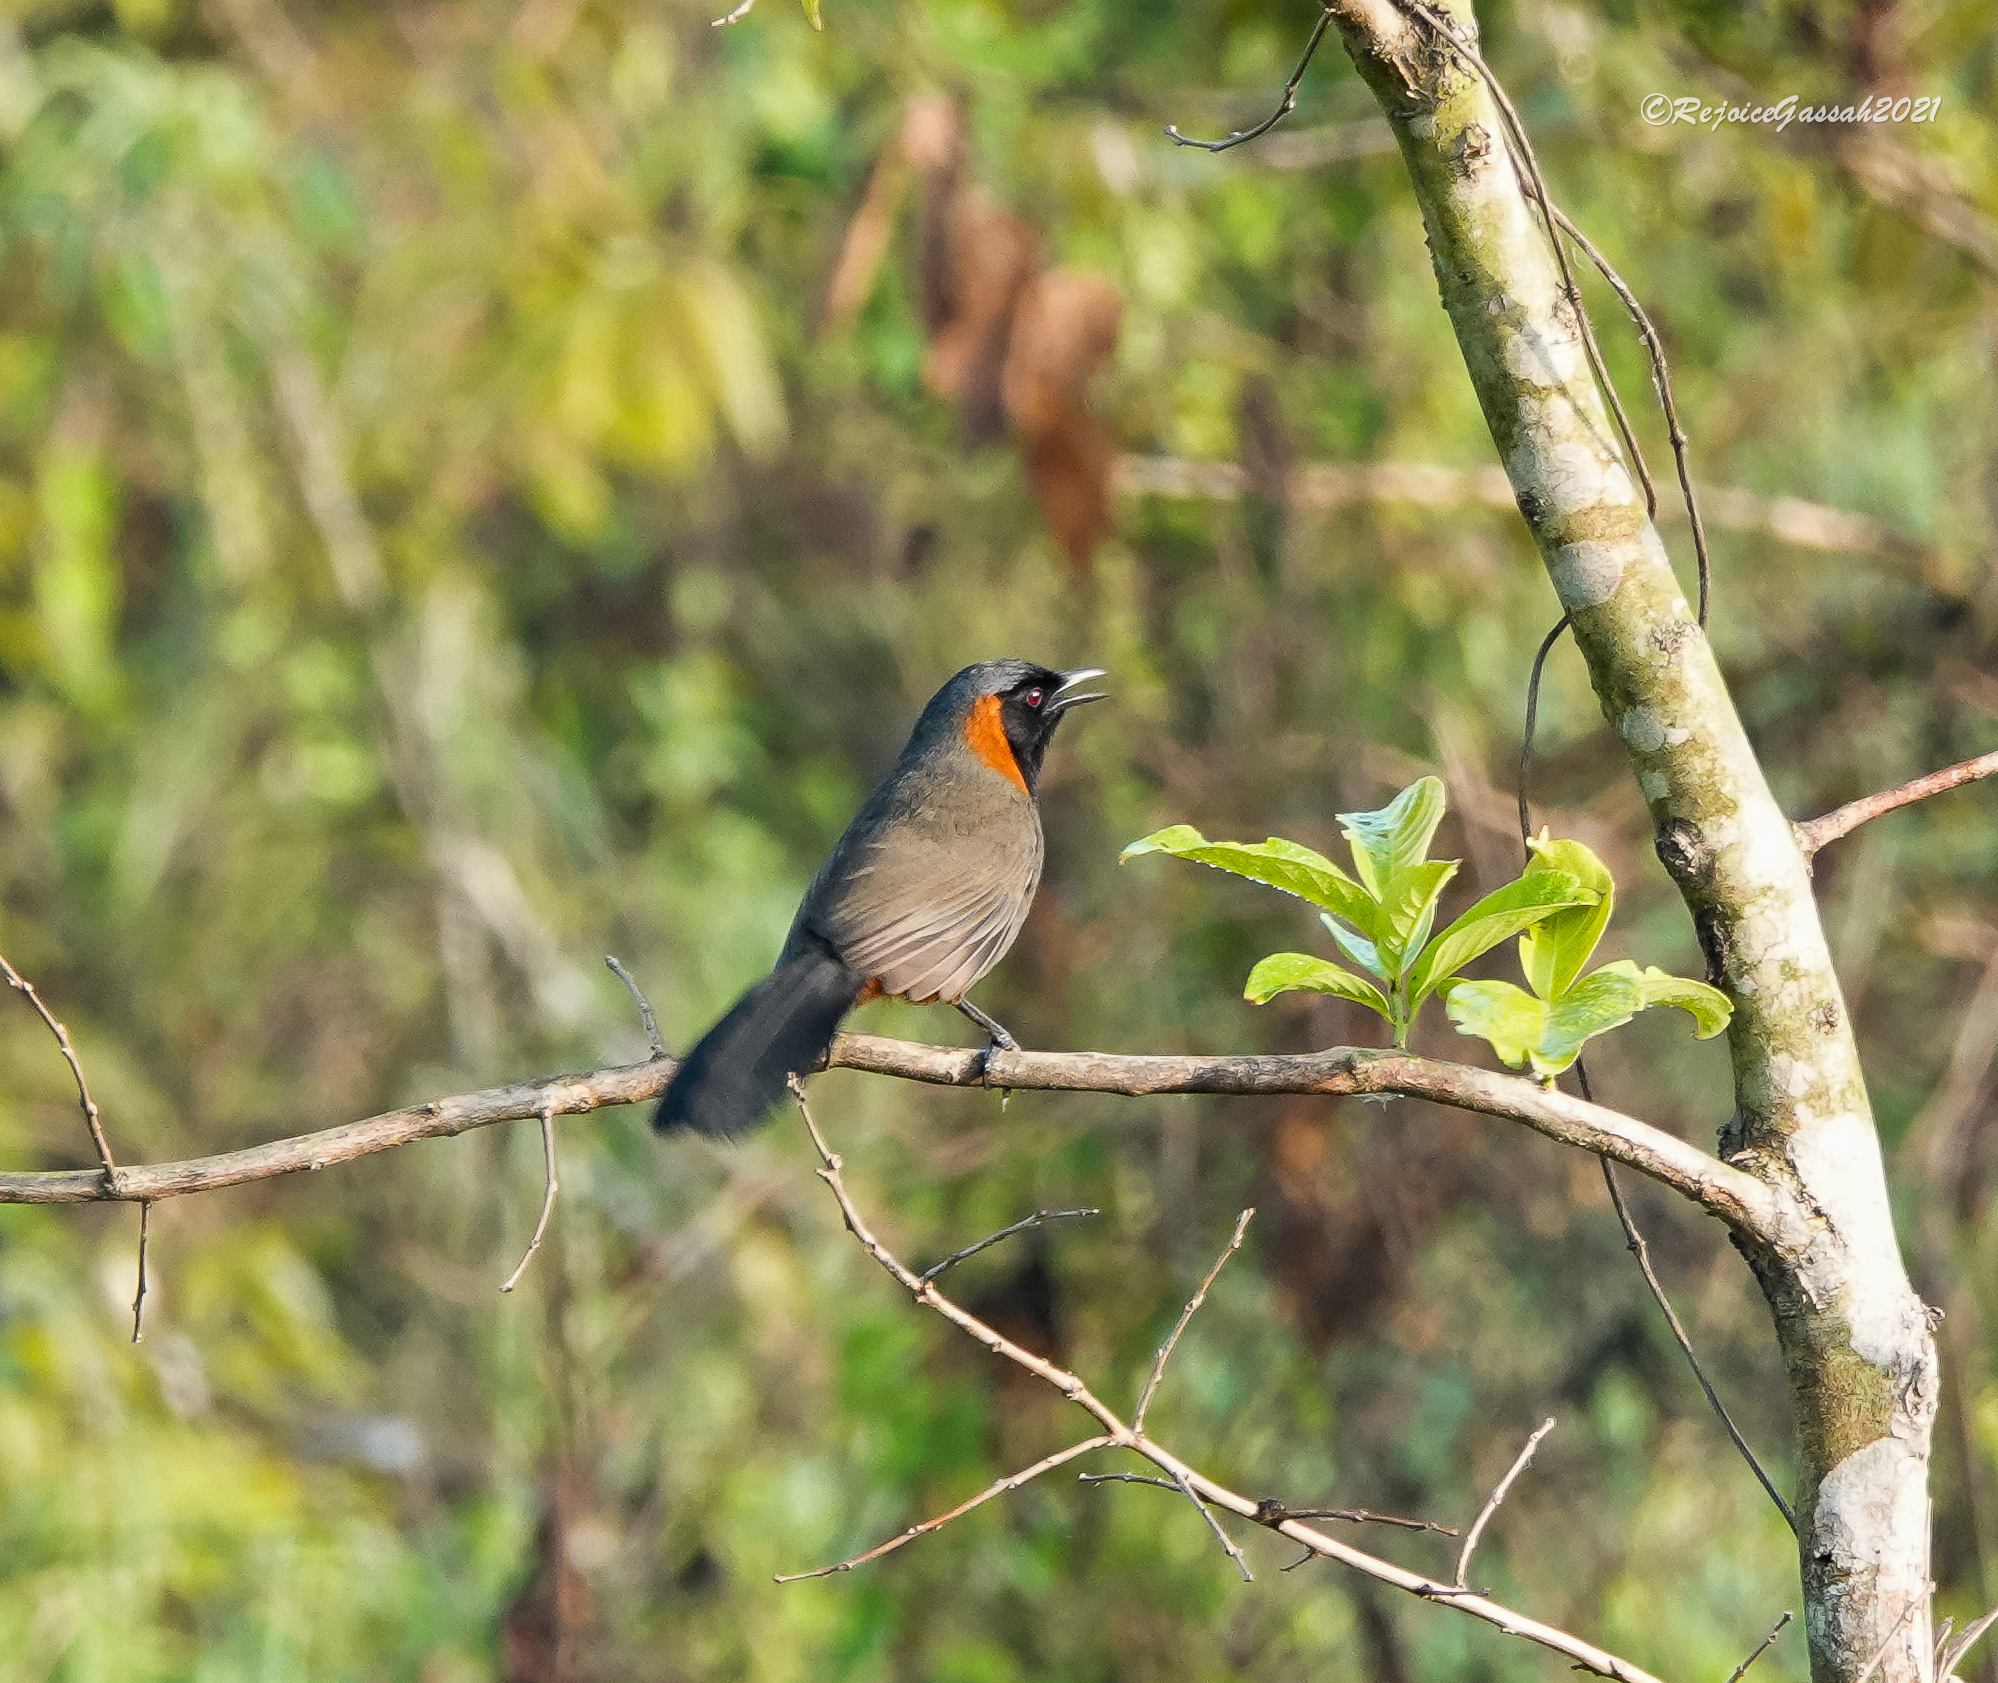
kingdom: Animalia
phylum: Chordata
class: Aves
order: Passeriformes
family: Leiothrichidae
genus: Garrulax
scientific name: Garrulax ruficollis
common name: Rufous-necked laughingthrush
